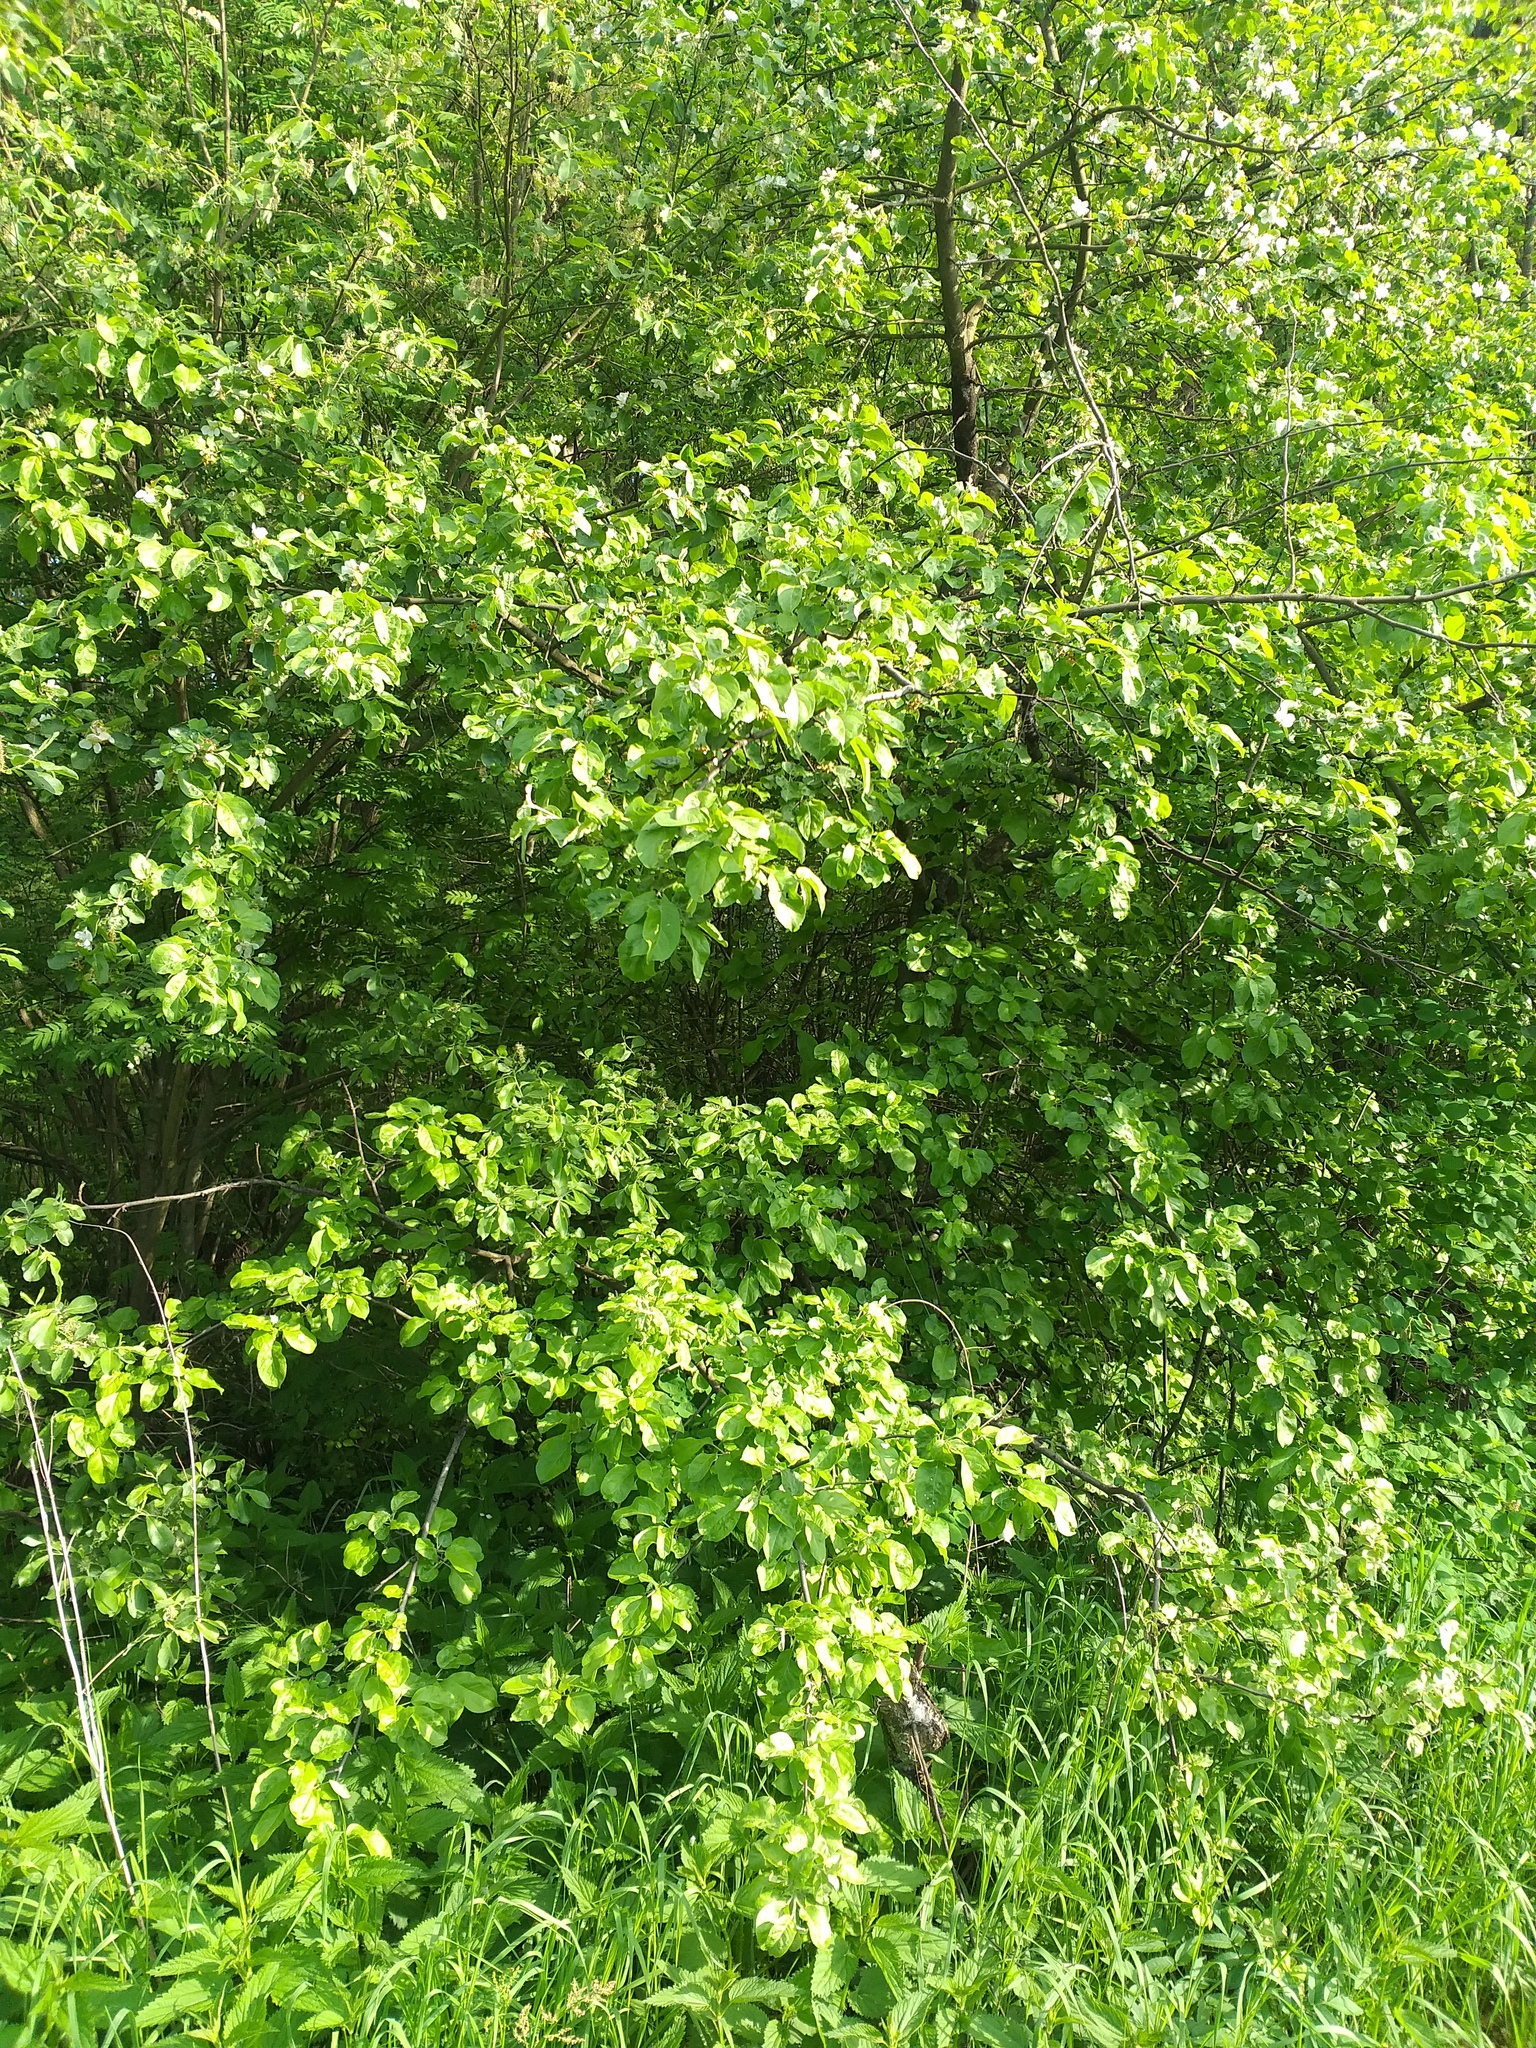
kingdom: Plantae
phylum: Tracheophyta
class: Magnoliopsida
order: Rosales
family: Rosaceae
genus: Malus
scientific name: Malus domestica
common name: Apple
